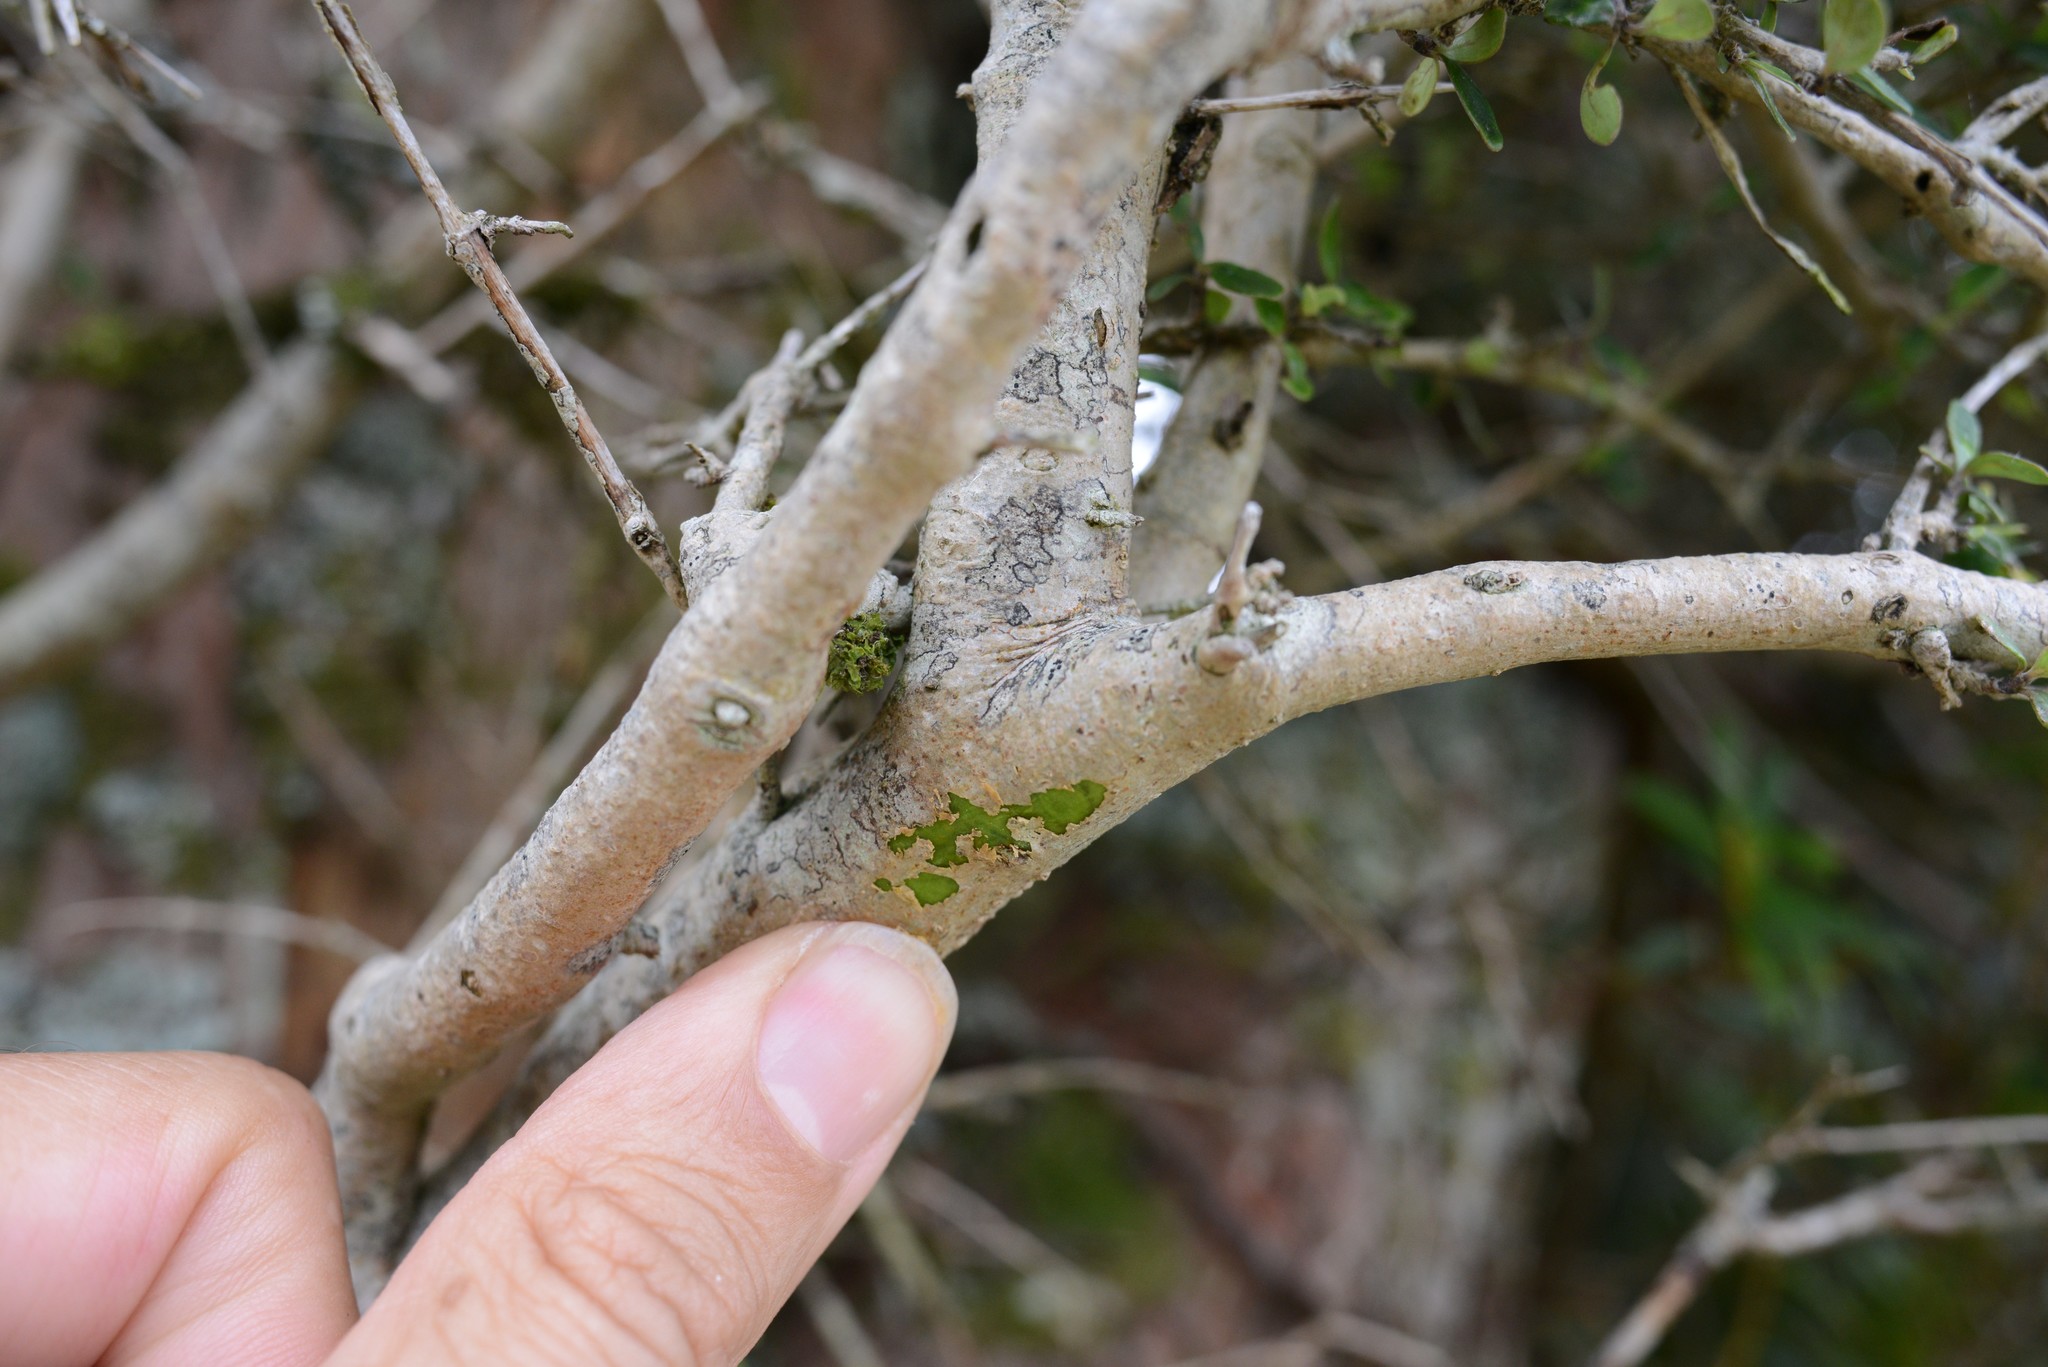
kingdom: Plantae
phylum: Tracheophyta
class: Magnoliopsida
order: Gentianales
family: Rubiaceae
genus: Coprosma
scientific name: Coprosma dumosa
